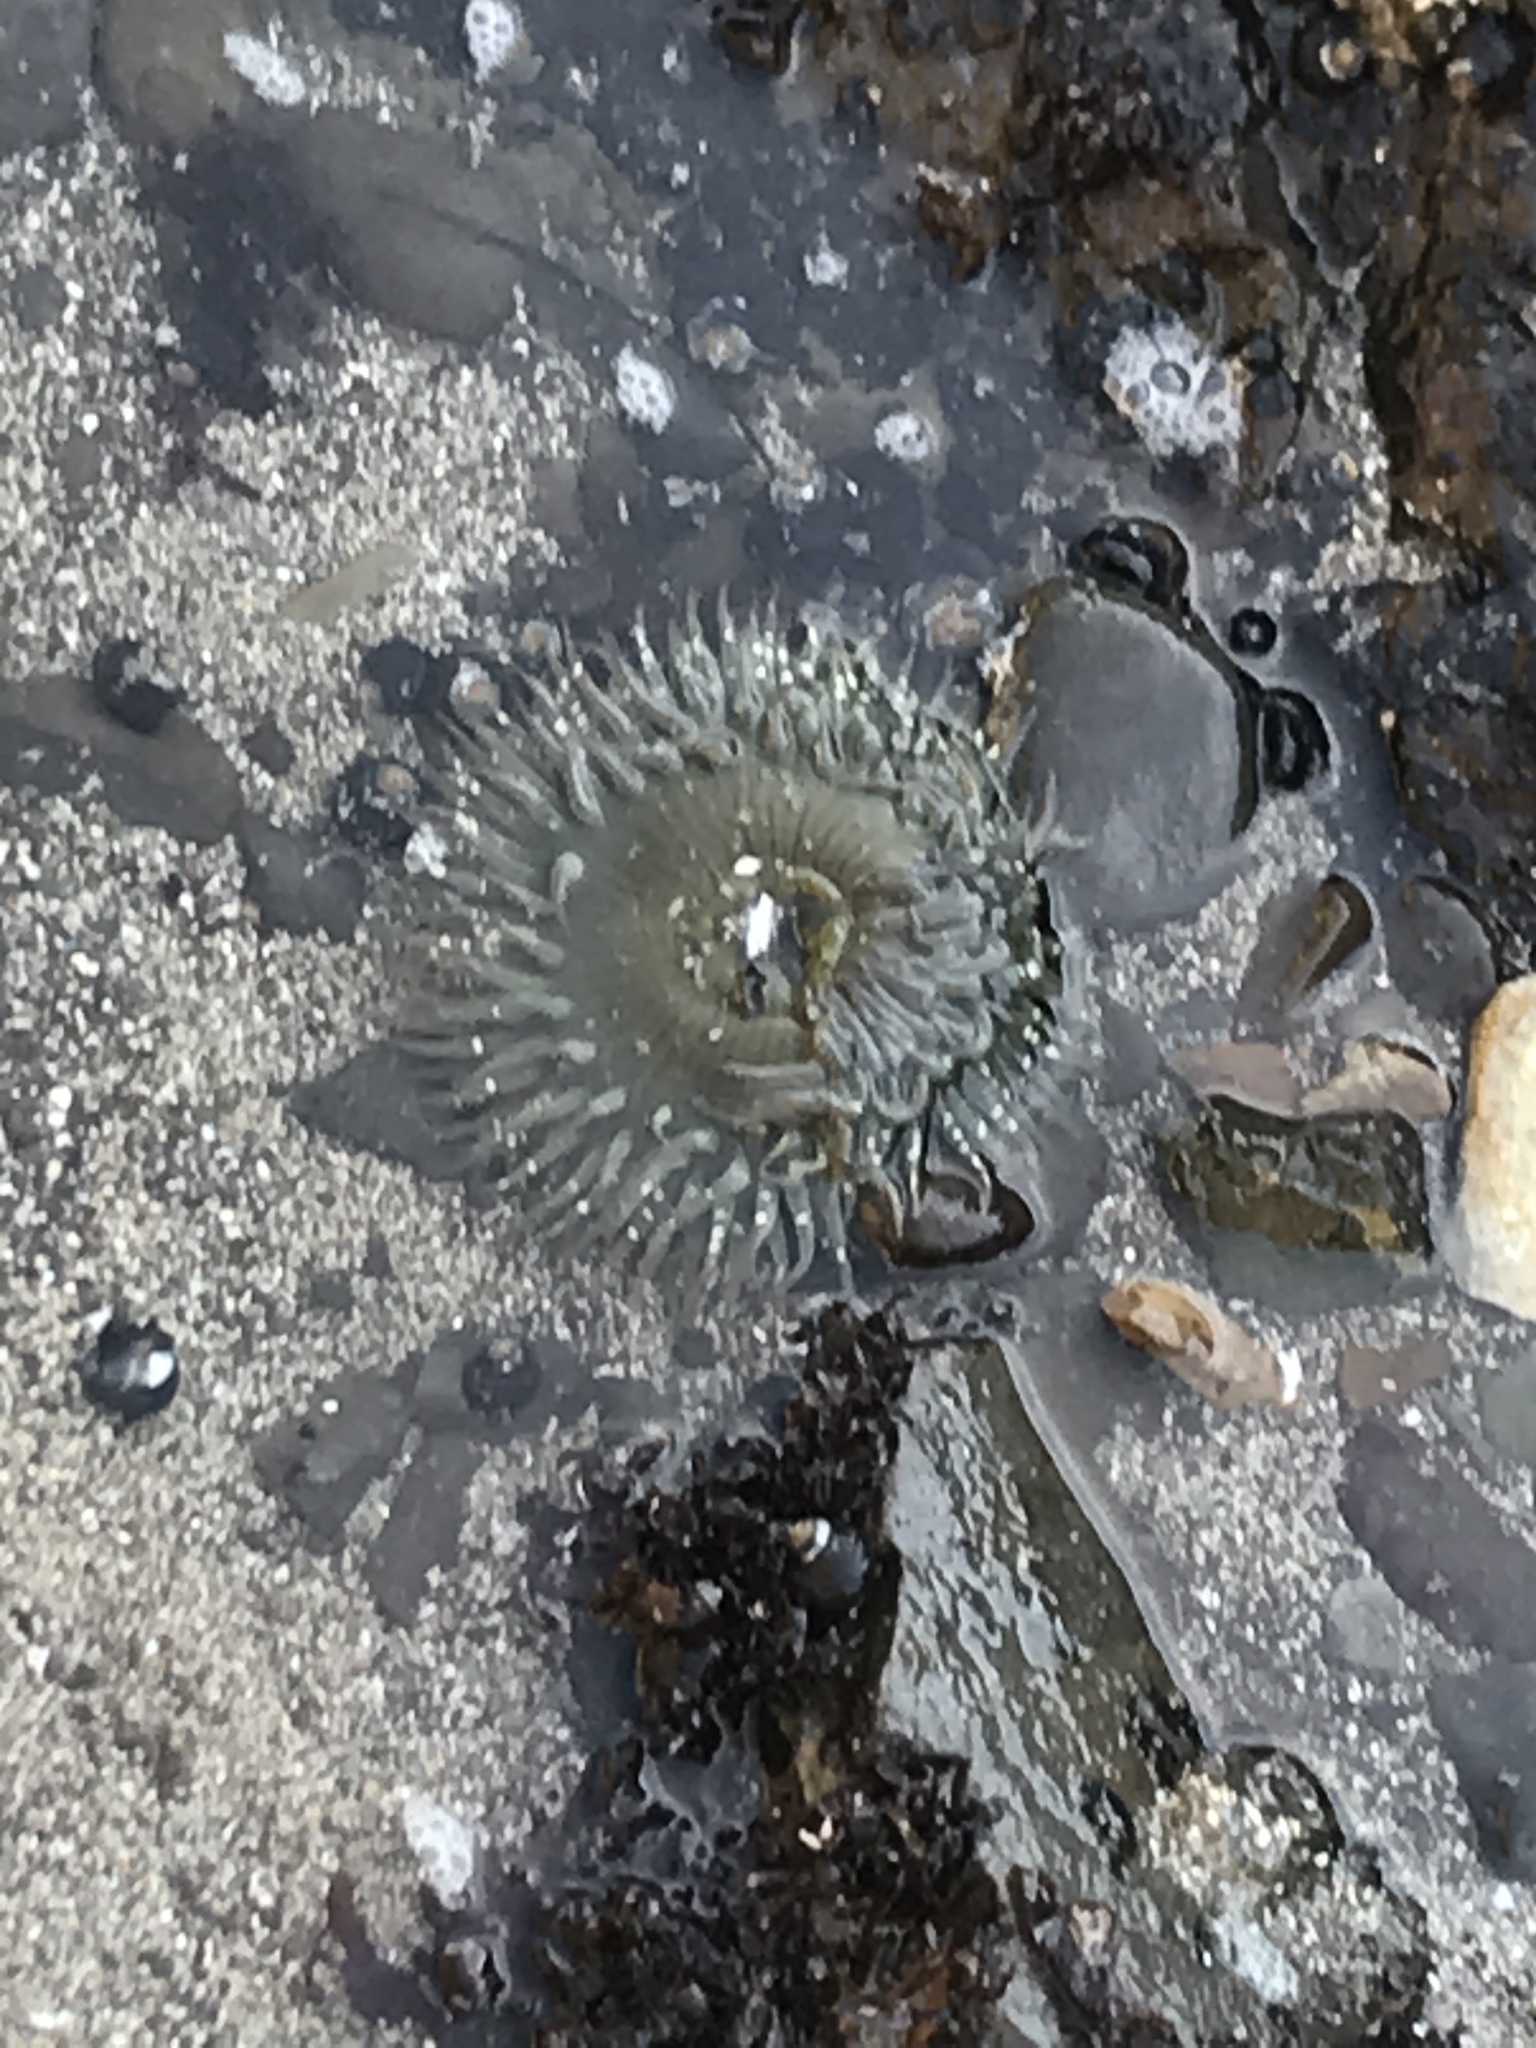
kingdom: Animalia
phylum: Cnidaria
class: Anthozoa
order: Actiniaria
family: Actiniidae
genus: Anthopleura
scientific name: Anthopleura sola
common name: Sun anemone
